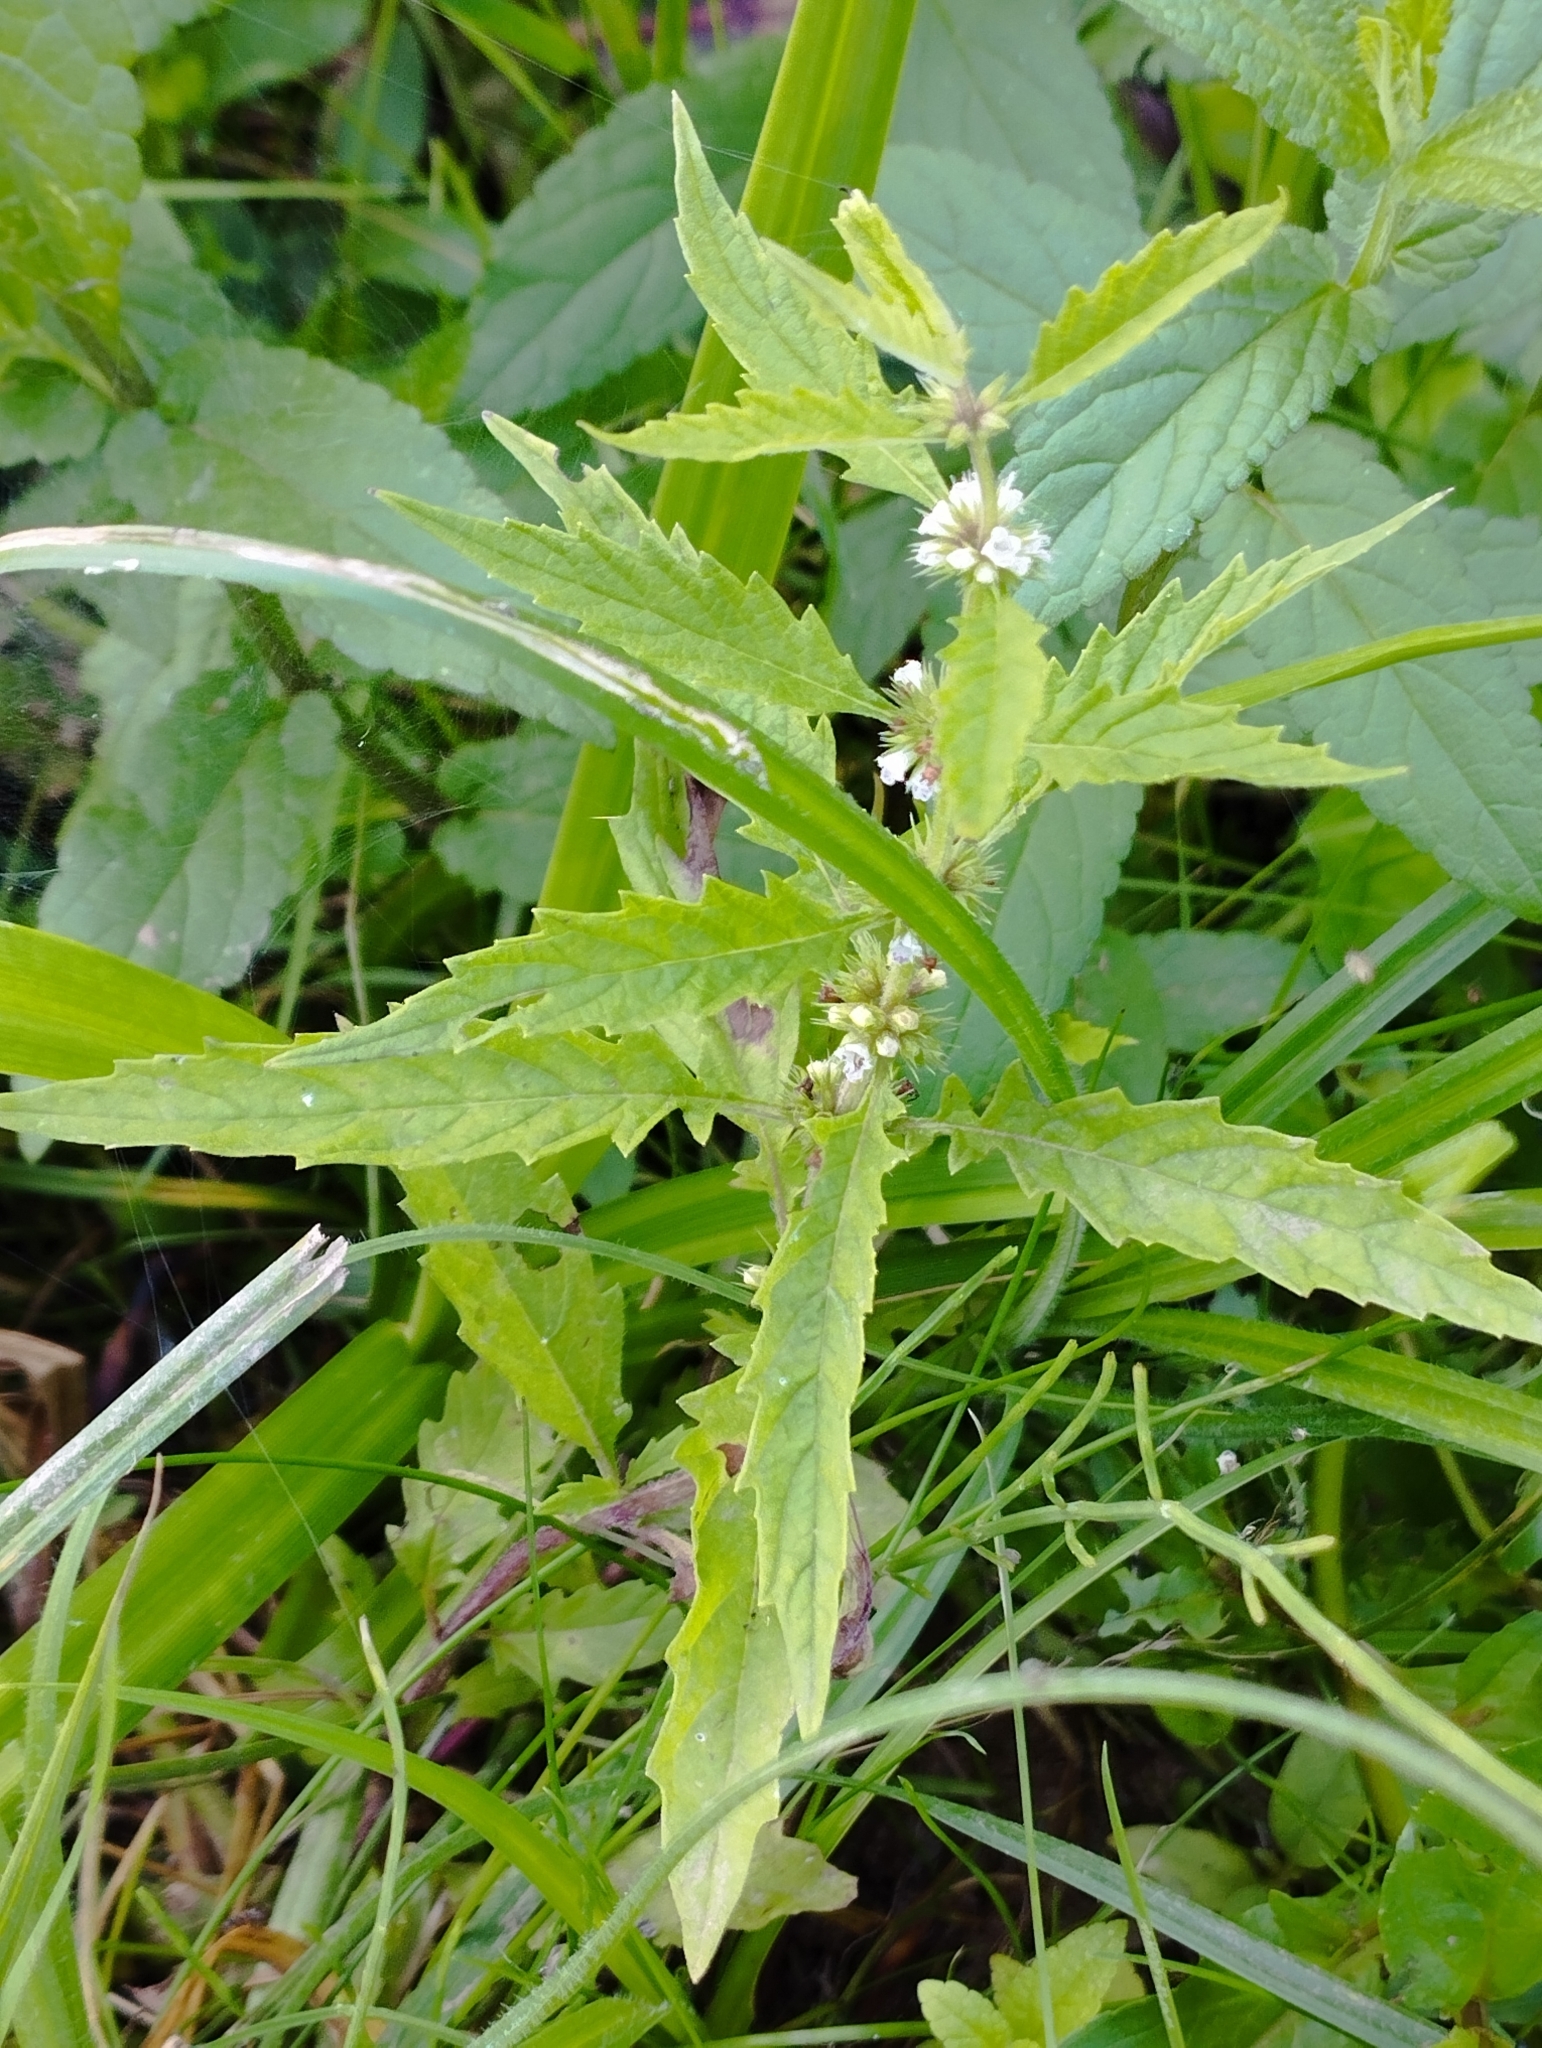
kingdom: Plantae
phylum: Tracheophyta
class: Magnoliopsida
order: Lamiales
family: Lamiaceae
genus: Lycopus
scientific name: Lycopus europaeus
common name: European bugleweed
